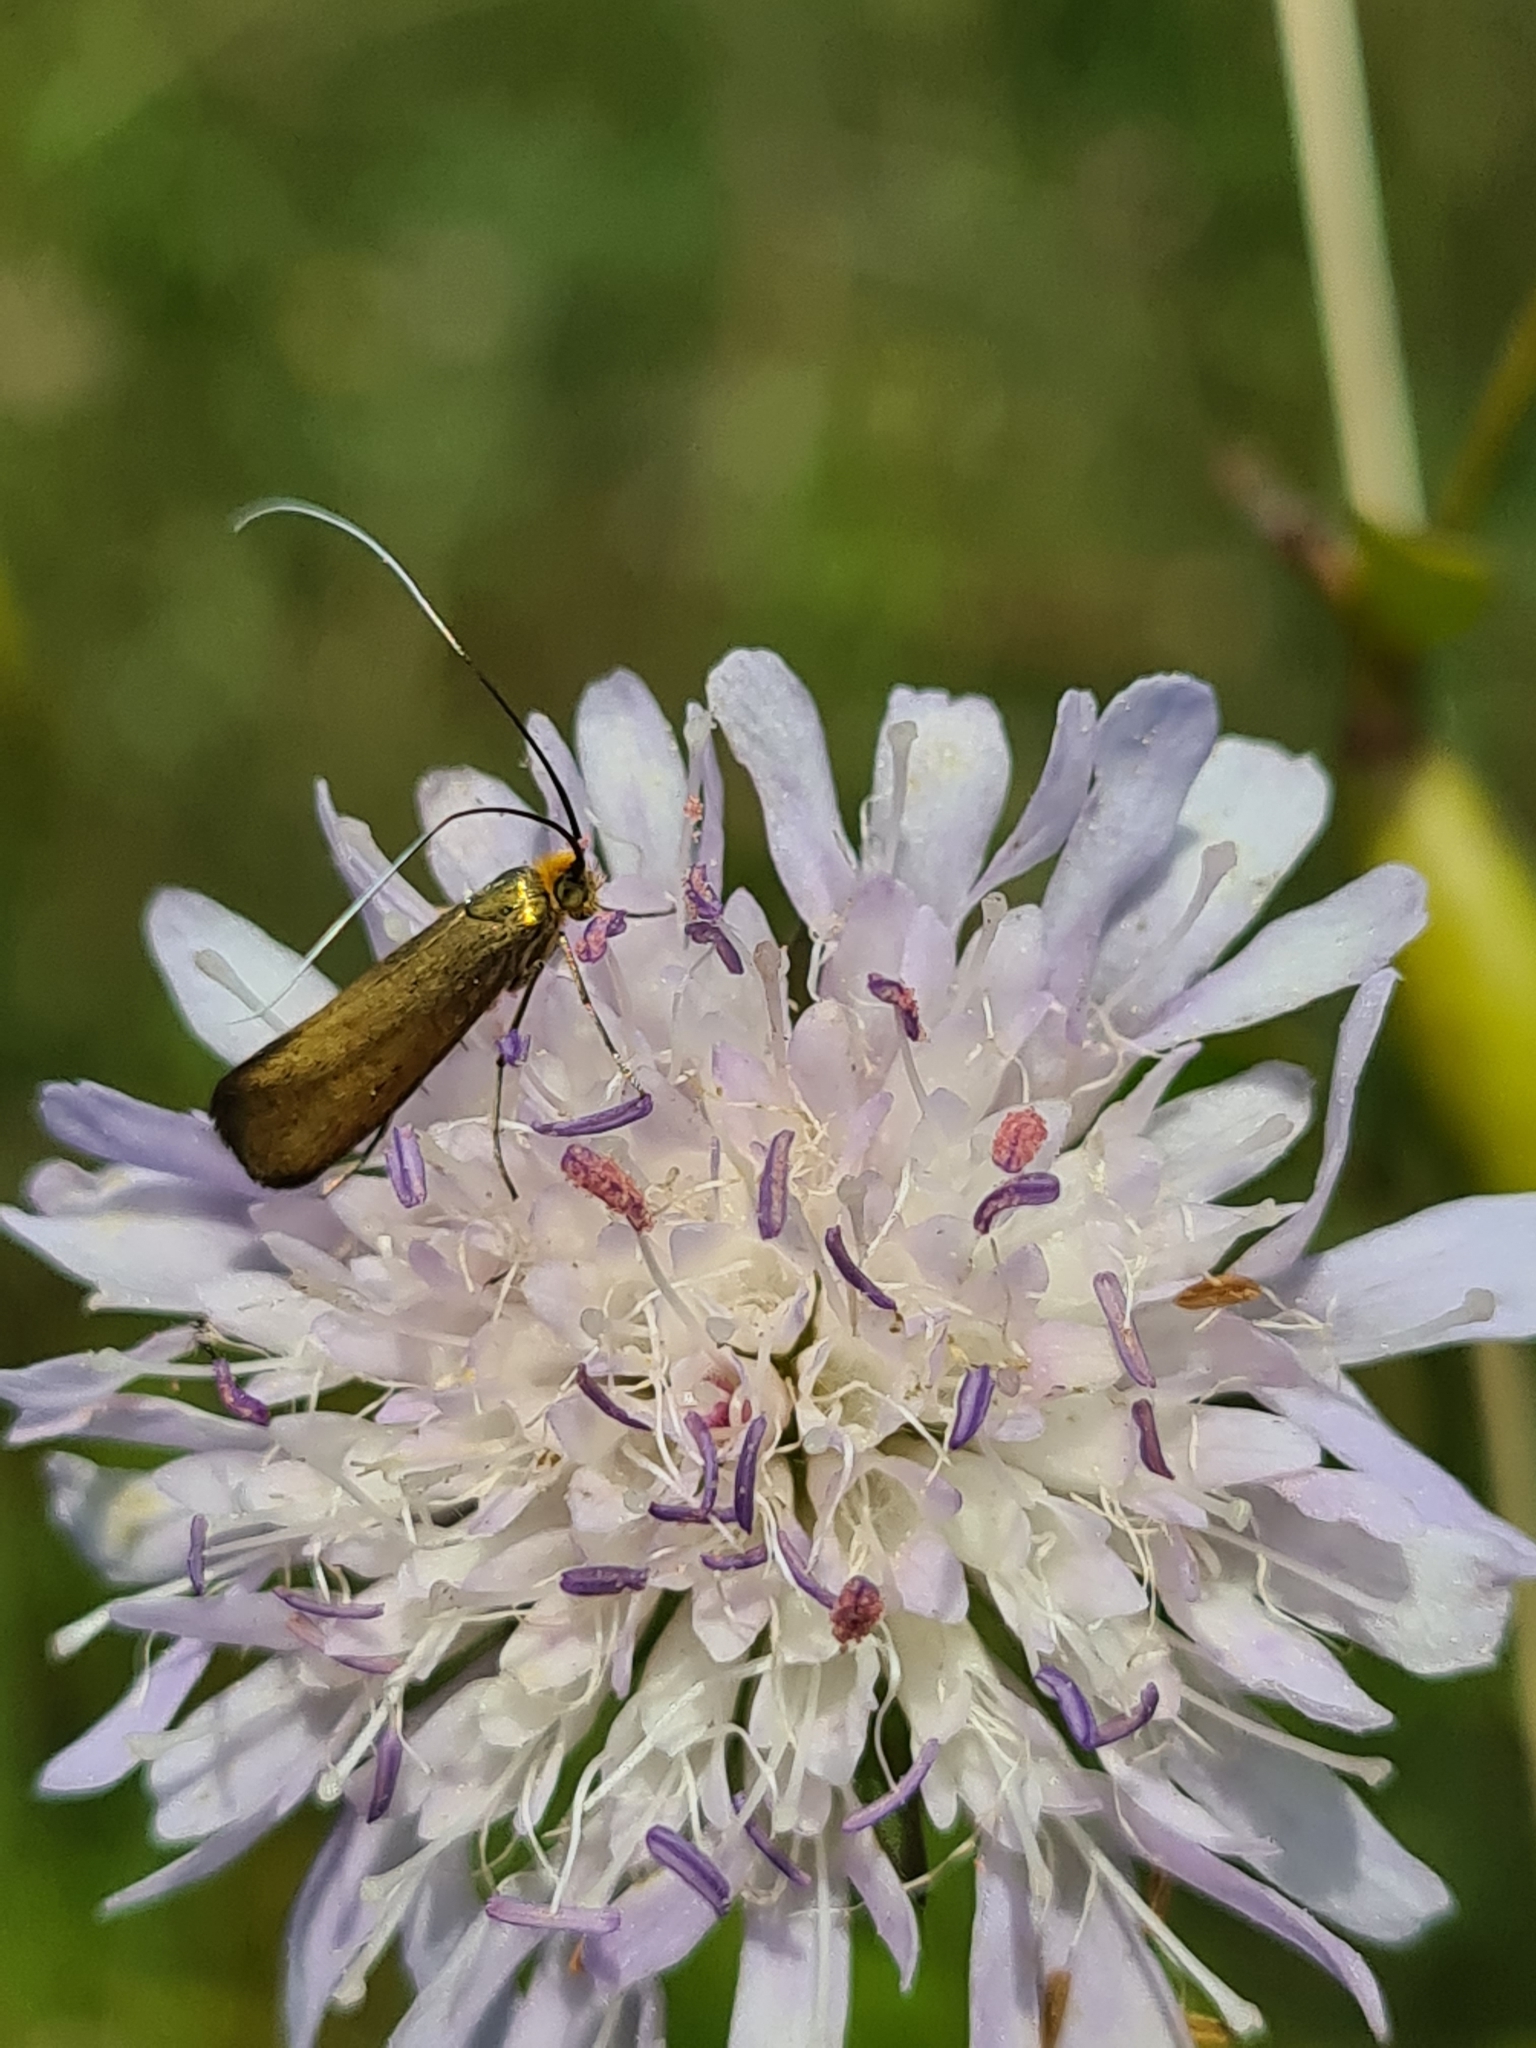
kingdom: Animalia
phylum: Arthropoda
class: Insecta
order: Lepidoptera
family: Adelidae
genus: Nemophora
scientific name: Nemophora metallica
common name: Brassy long-horn
